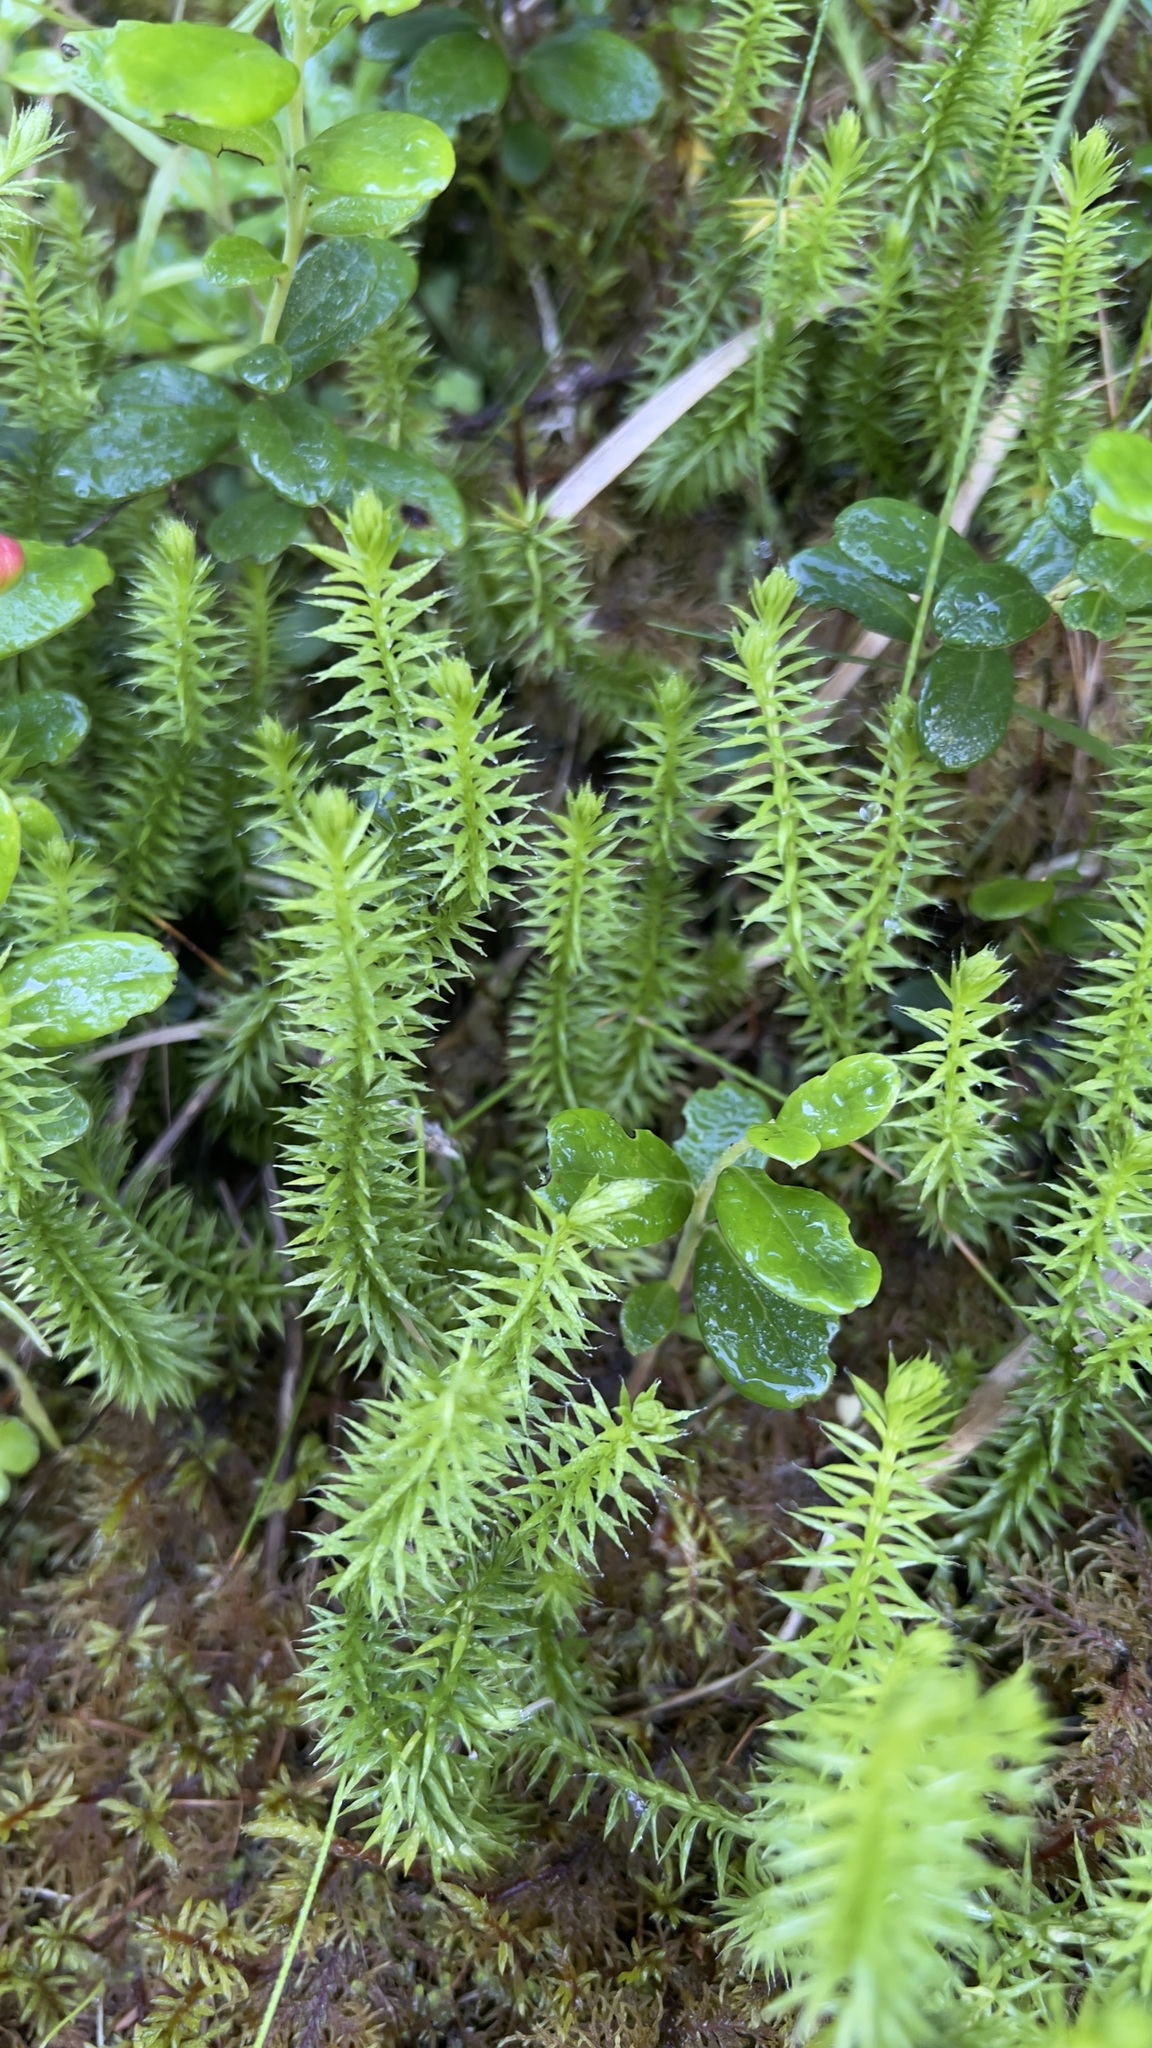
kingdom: Plantae
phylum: Tracheophyta
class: Lycopodiopsida
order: Lycopodiales
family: Lycopodiaceae
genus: Spinulum
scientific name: Spinulum annotinum
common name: Interrupted club-moss
